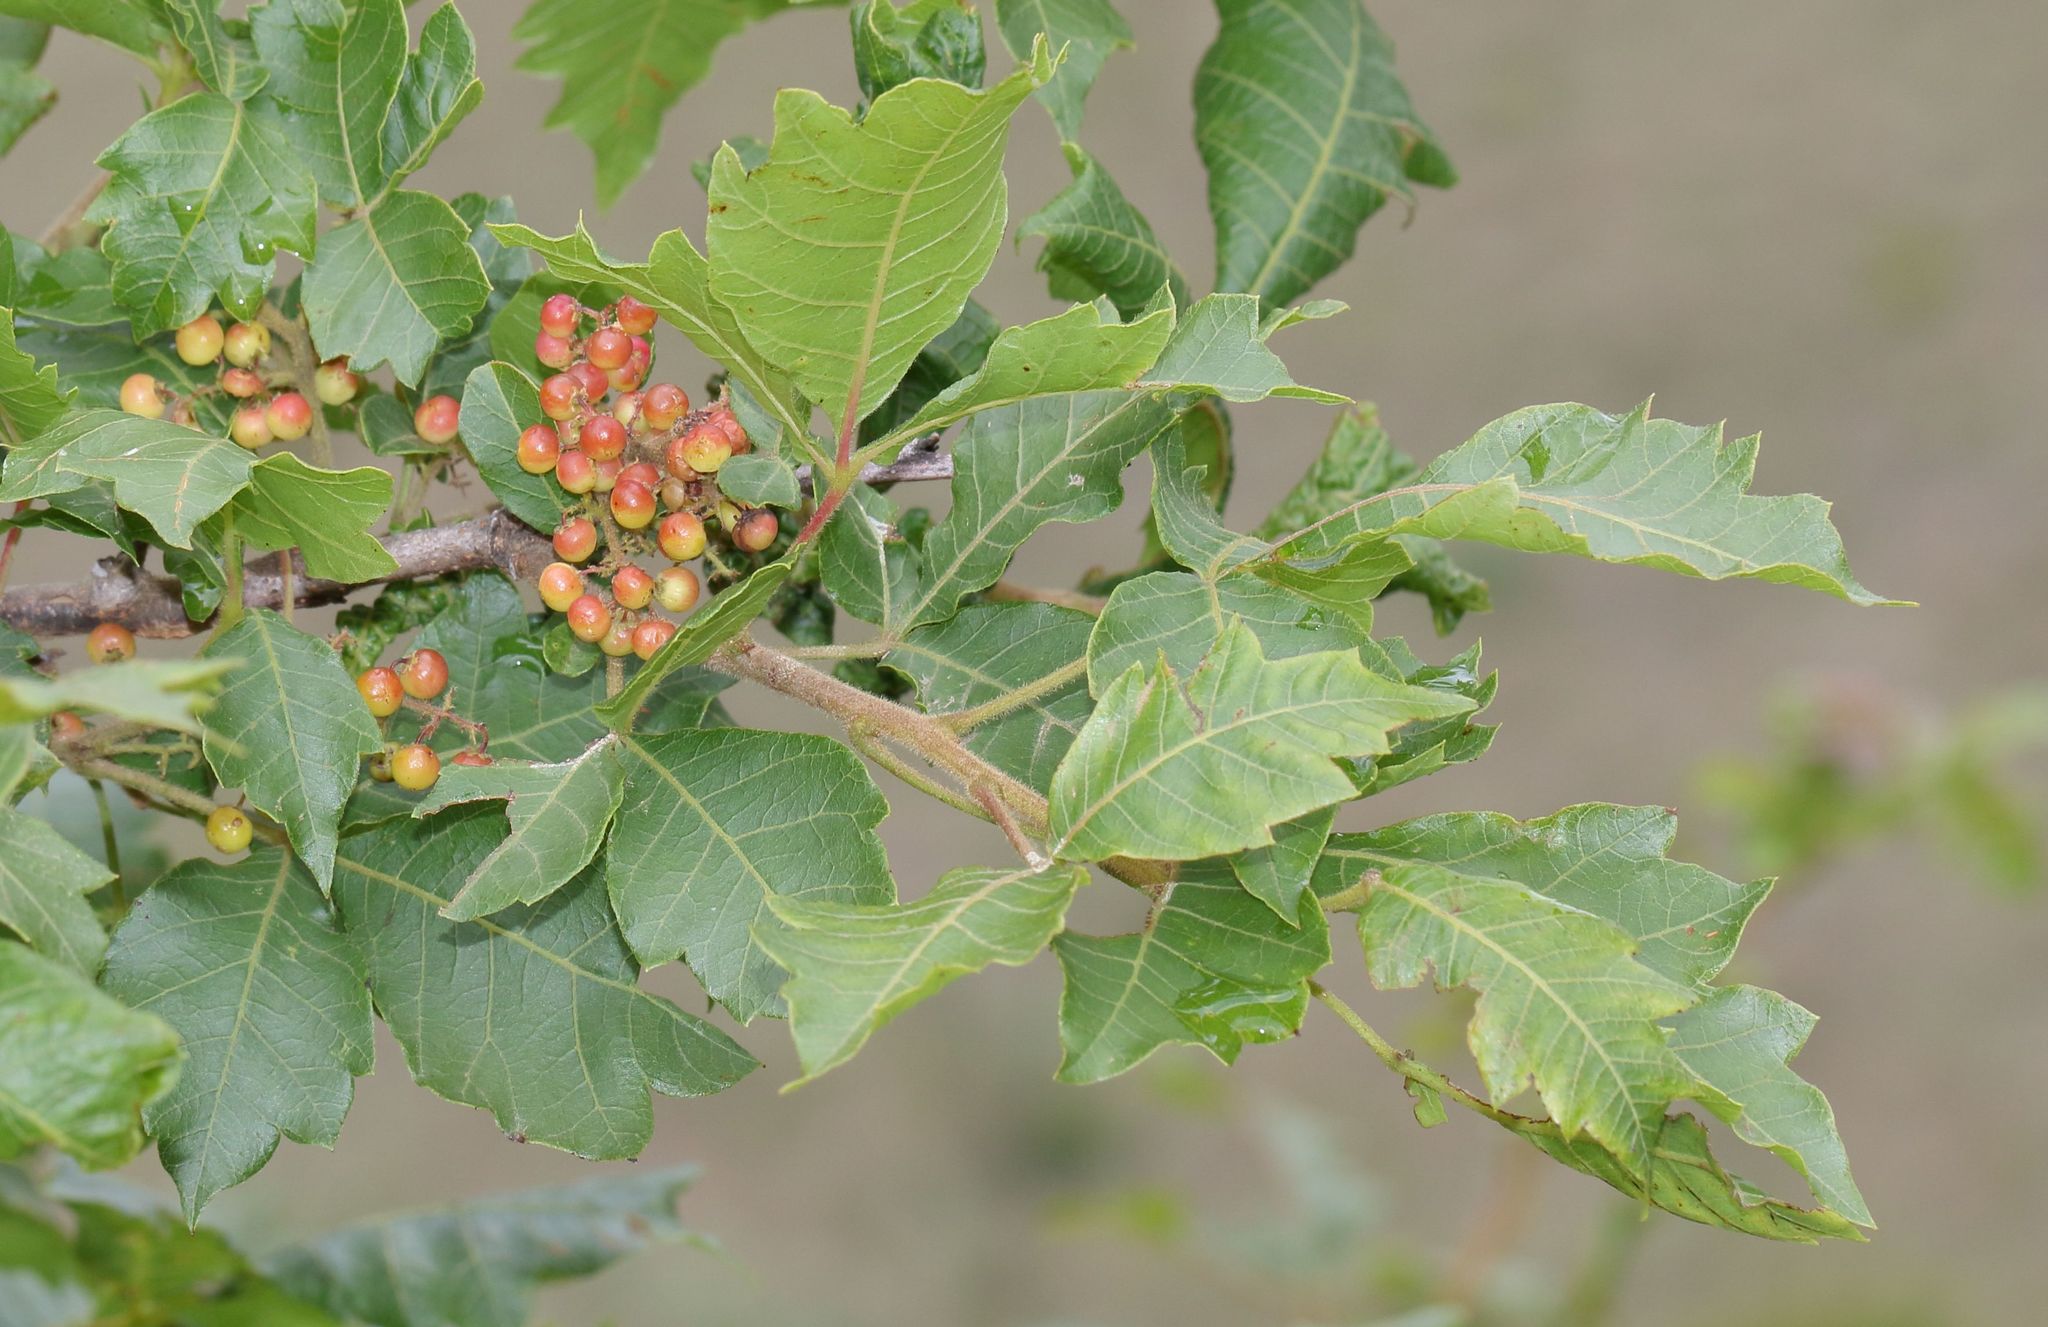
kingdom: Plantae
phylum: Tracheophyta
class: Magnoliopsida
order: Sapindales
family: Anacardiaceae
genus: Searsia
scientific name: Searsia dentata
